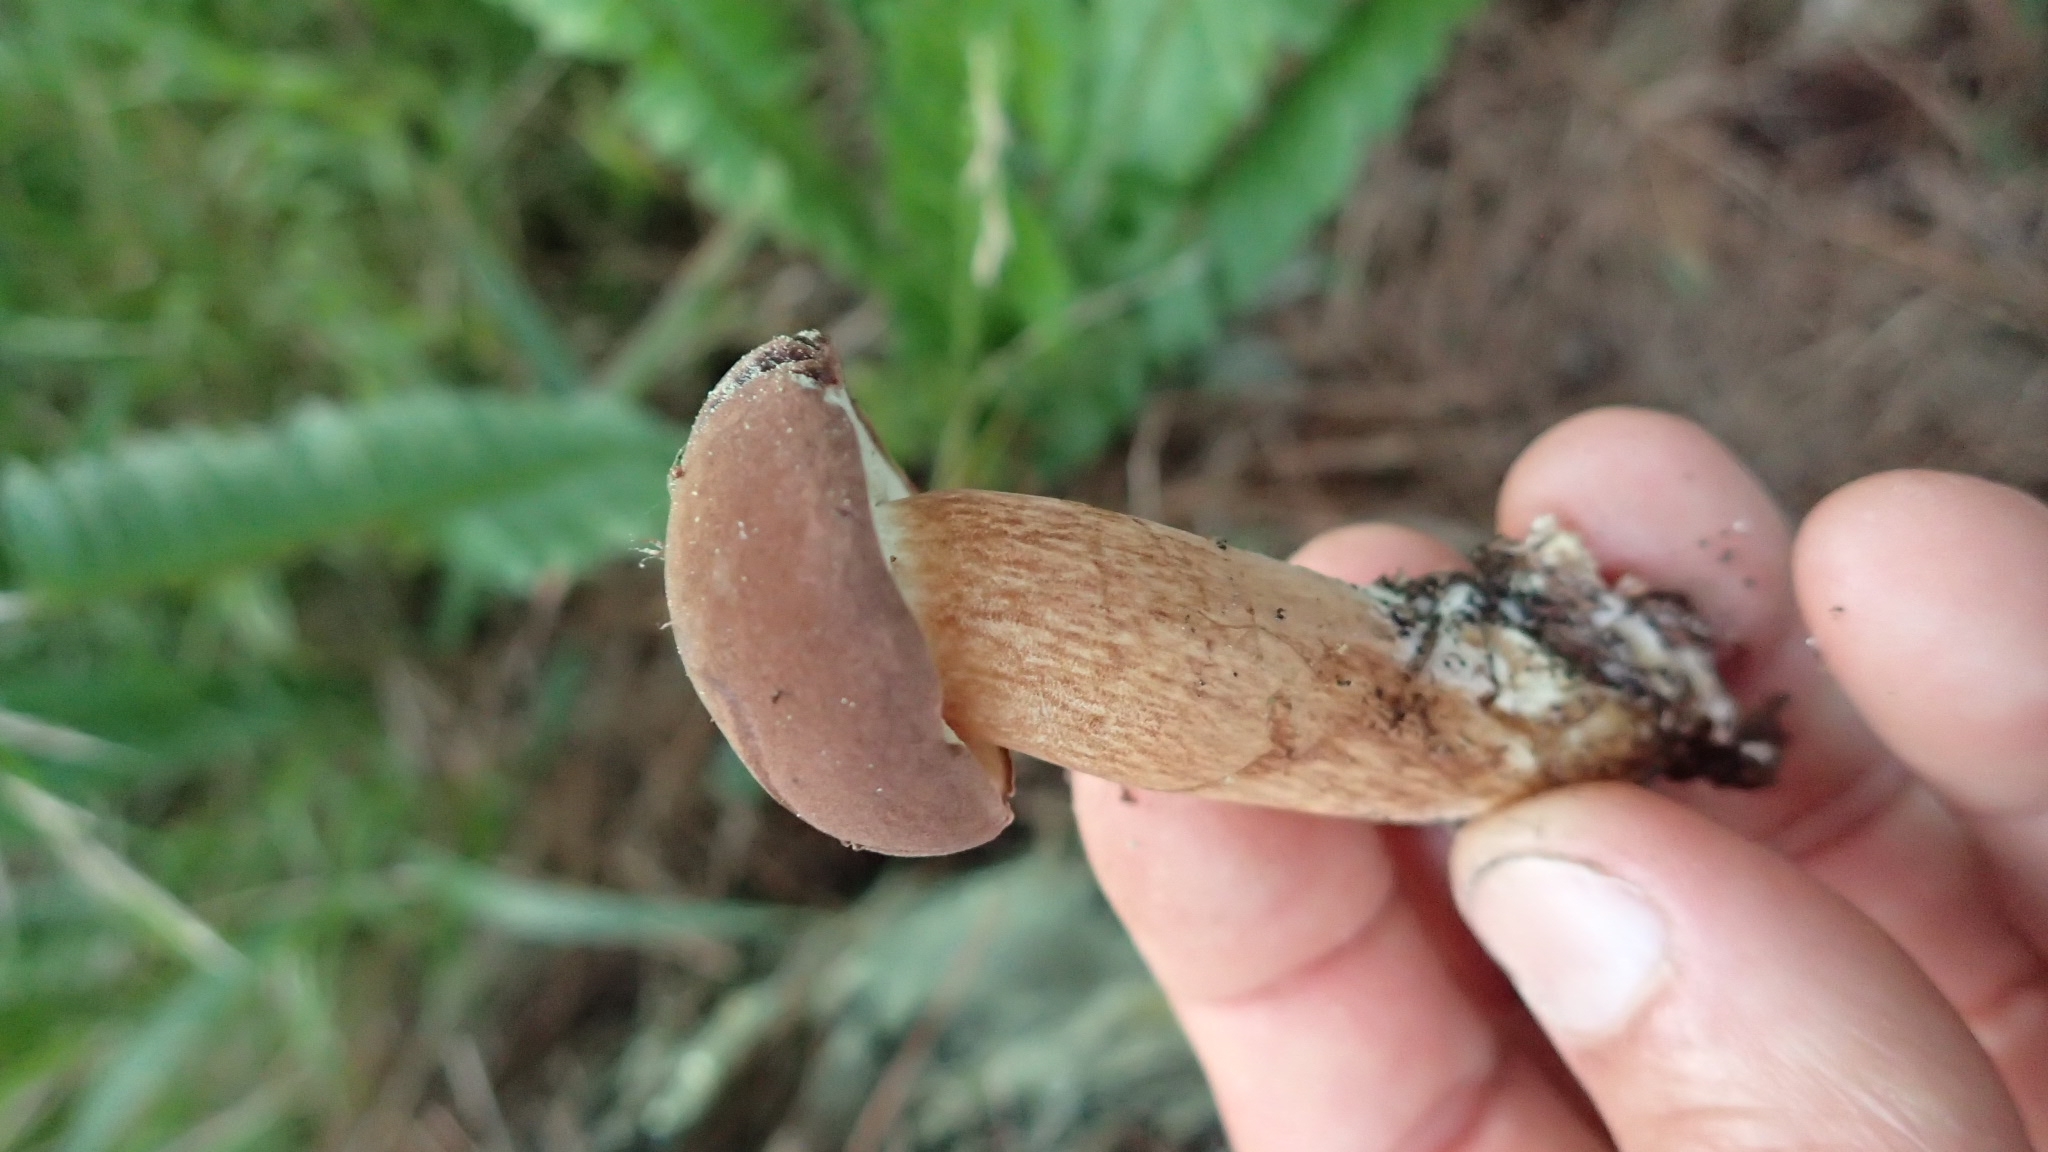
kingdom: Fungi
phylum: Basidiomycota
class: Agaricomycetes
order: Boletales
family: Boletaceae
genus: Imleria
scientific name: Imleria badia
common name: Bay bolete
